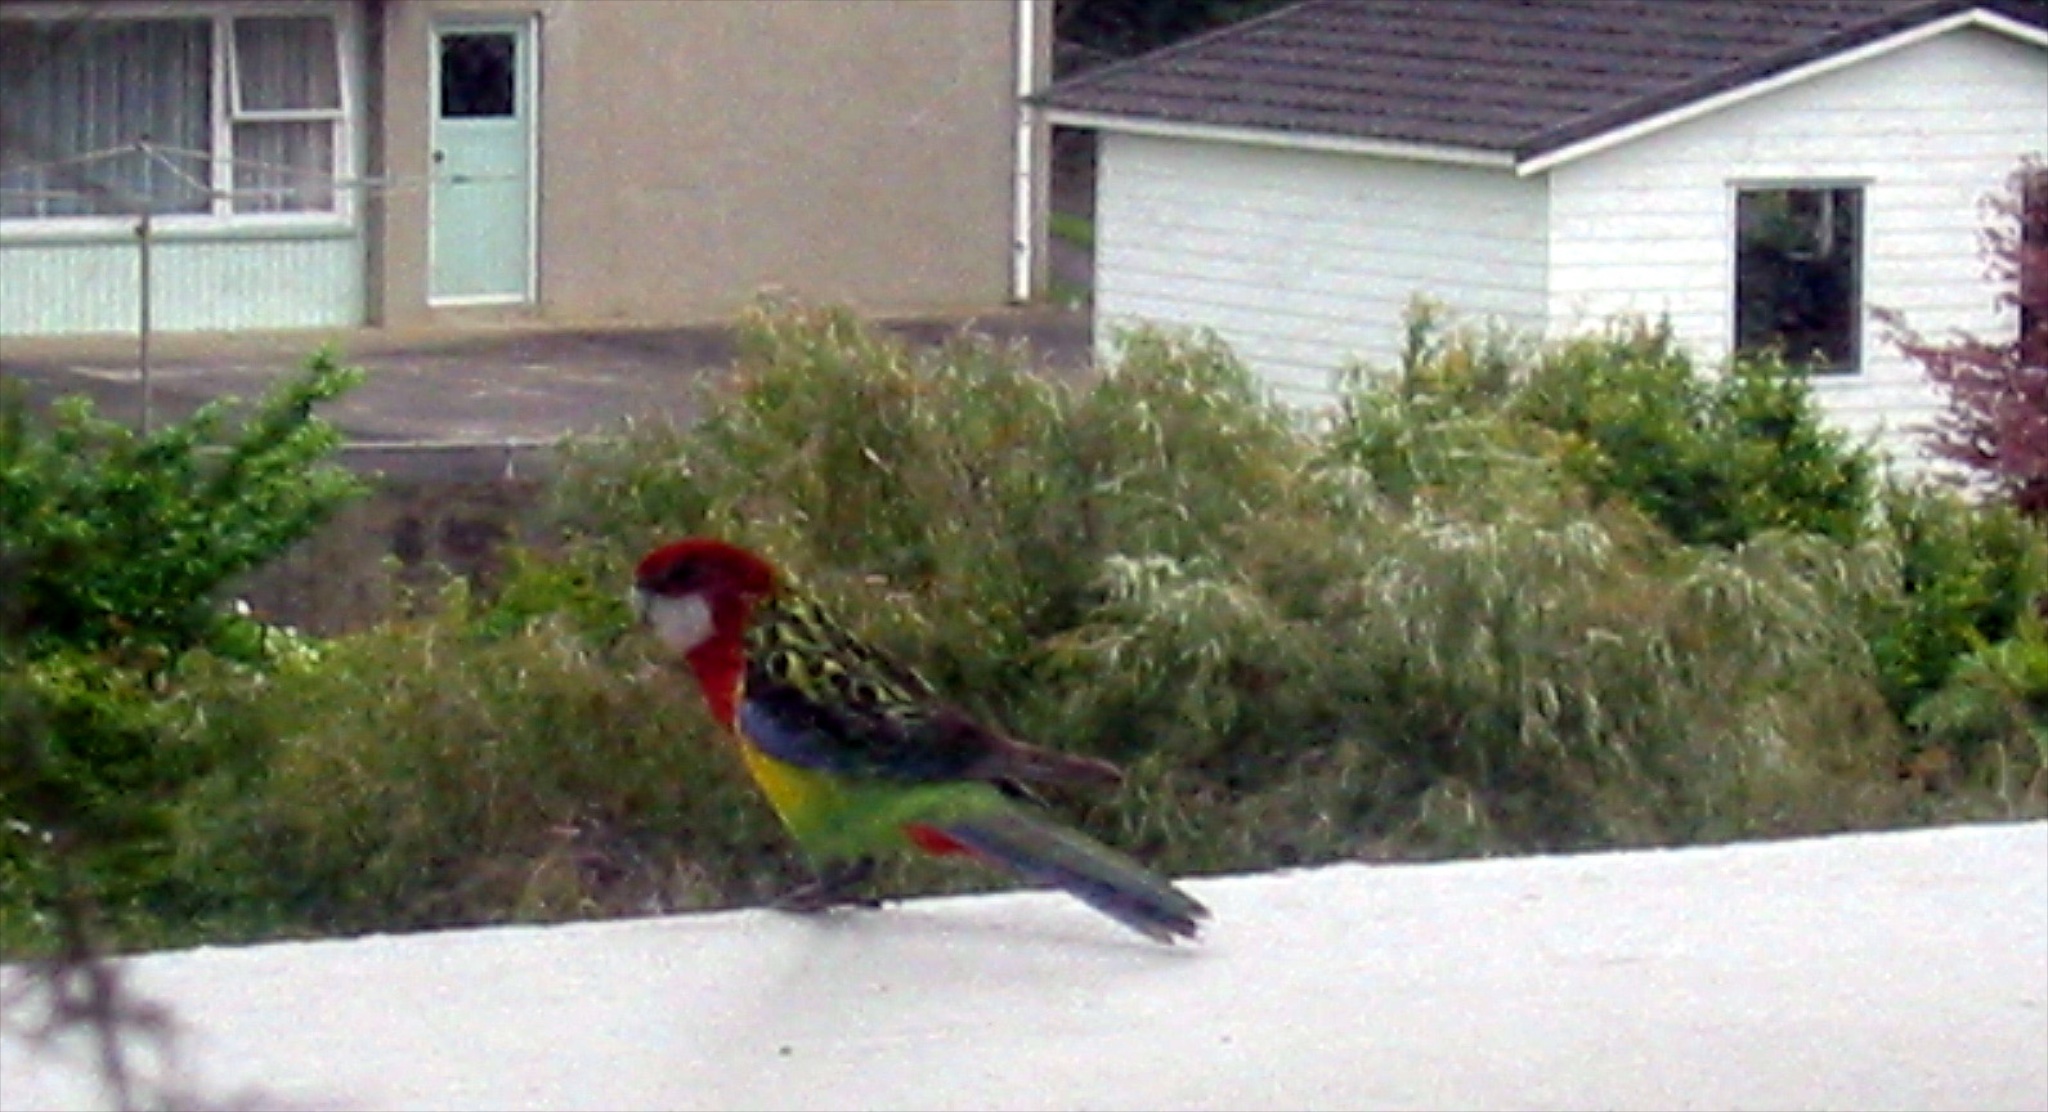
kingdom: Animalia
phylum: Chordata
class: Aves
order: Psittaciformes
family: Psittacidae
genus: Platycercus
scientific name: Platycercus eximius
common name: Eastern rosella
